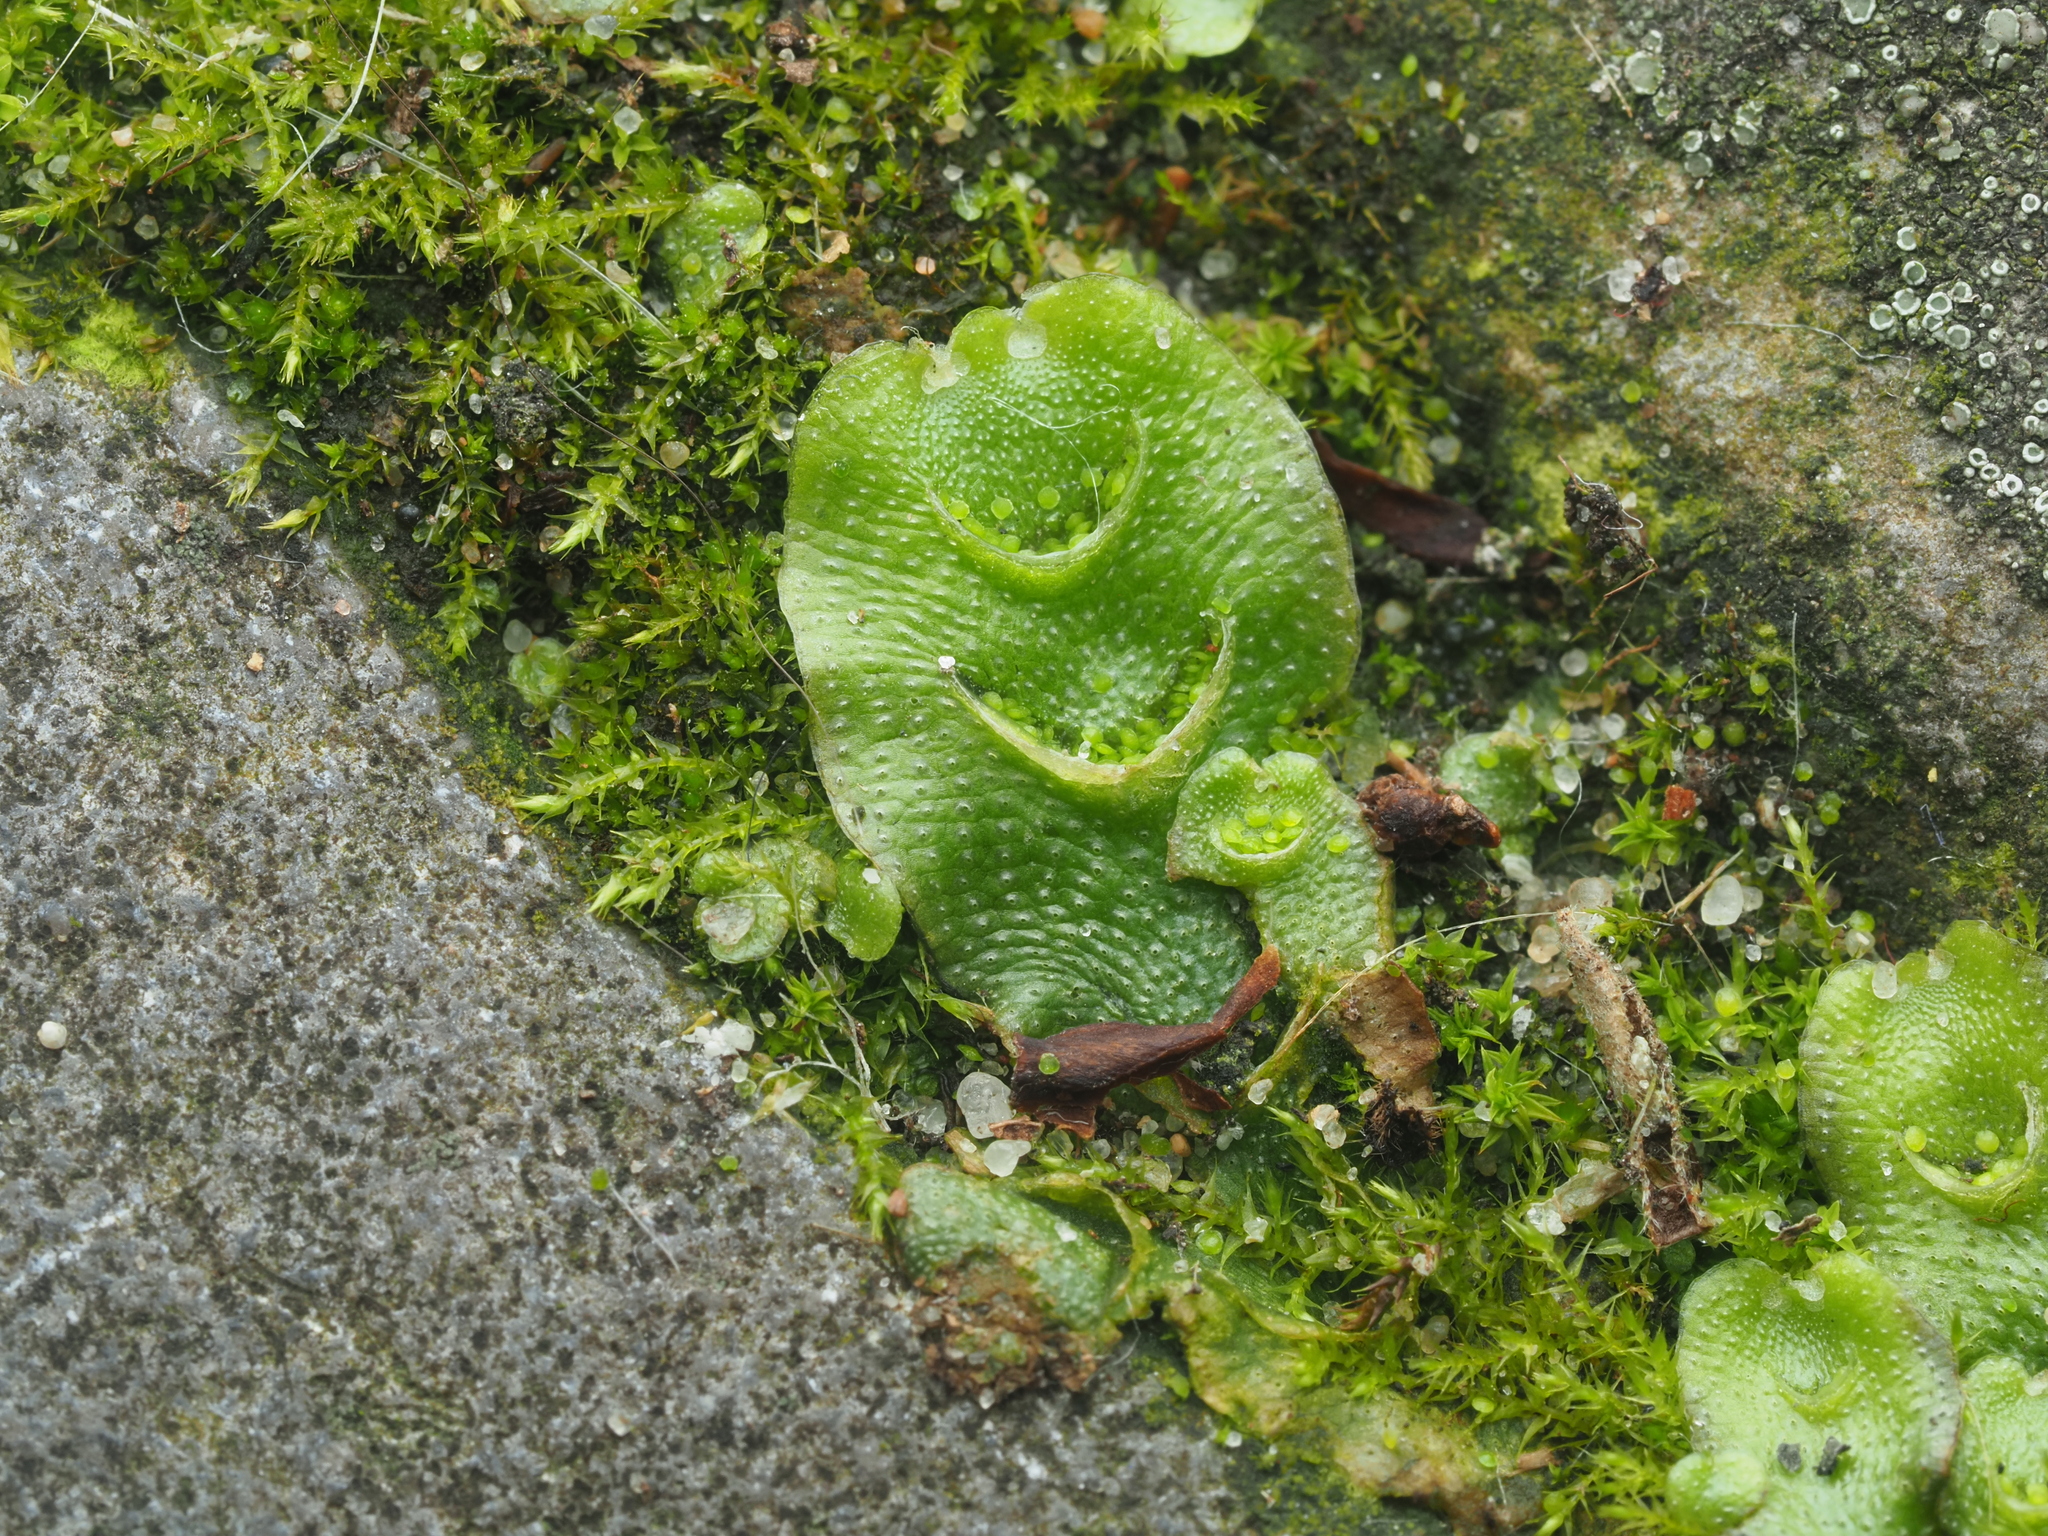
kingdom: Plantae
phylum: Marchantiophyta
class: Marchantiopsida
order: Lunulariales
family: Lunulariaceae
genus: Lunularia
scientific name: Lunularia cruciata
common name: Crescent-cup liverwort
